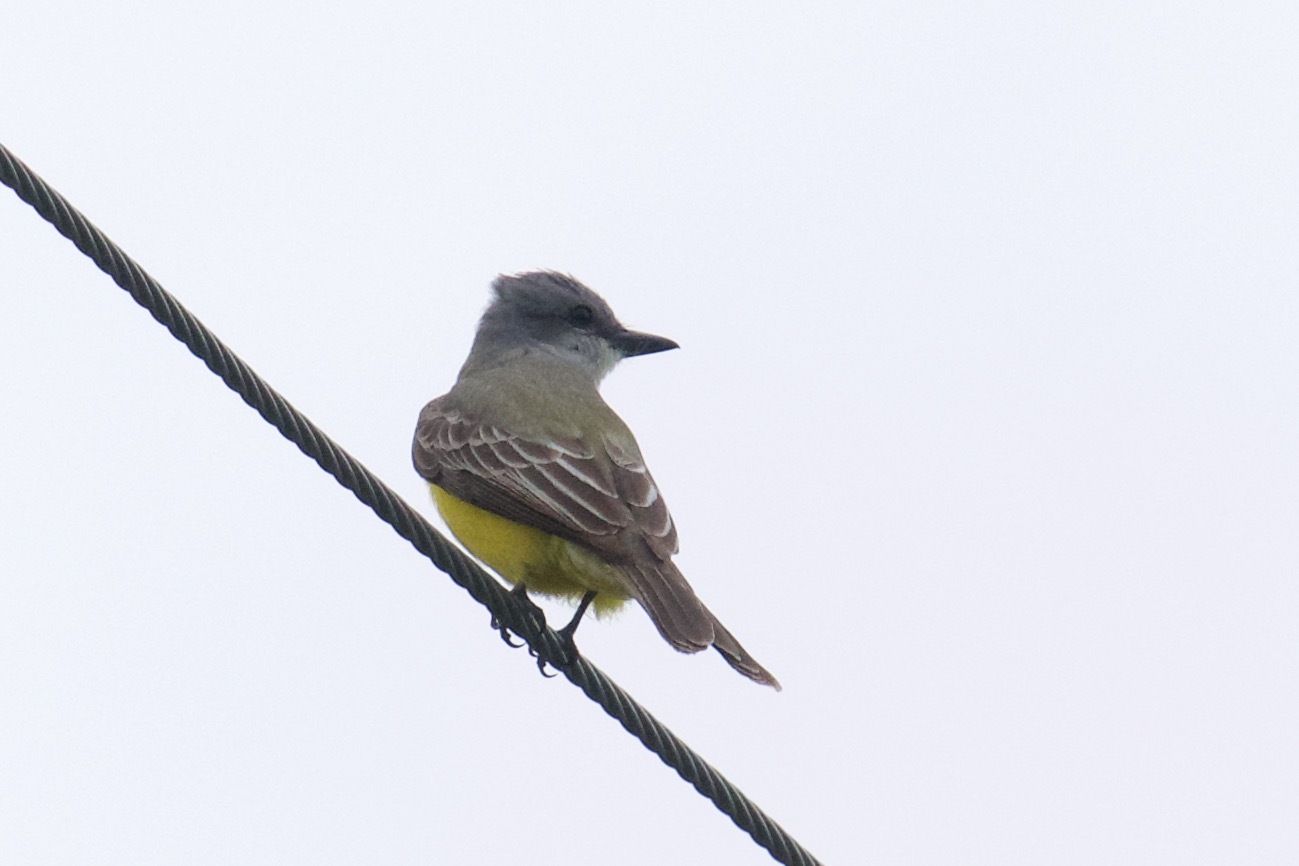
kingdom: Animalia
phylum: Chordata
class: Aves
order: Passeriformes
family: Tyrannidae
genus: Tyrannus
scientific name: Tyrannus couchii
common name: Couch's kingbird
